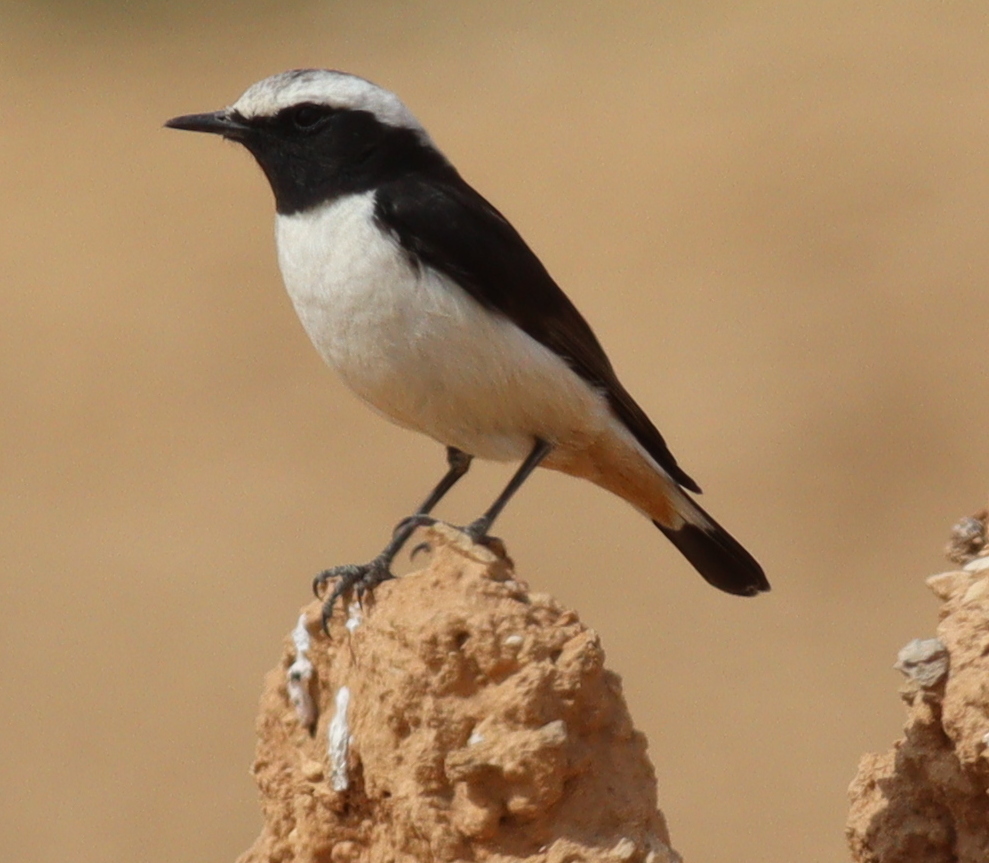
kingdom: Animalia
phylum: Chordata
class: Aves
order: Passeriformes
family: Muscicapidae
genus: Oenanthe
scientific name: Oenanthe lugens
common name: Mourning wheatear
